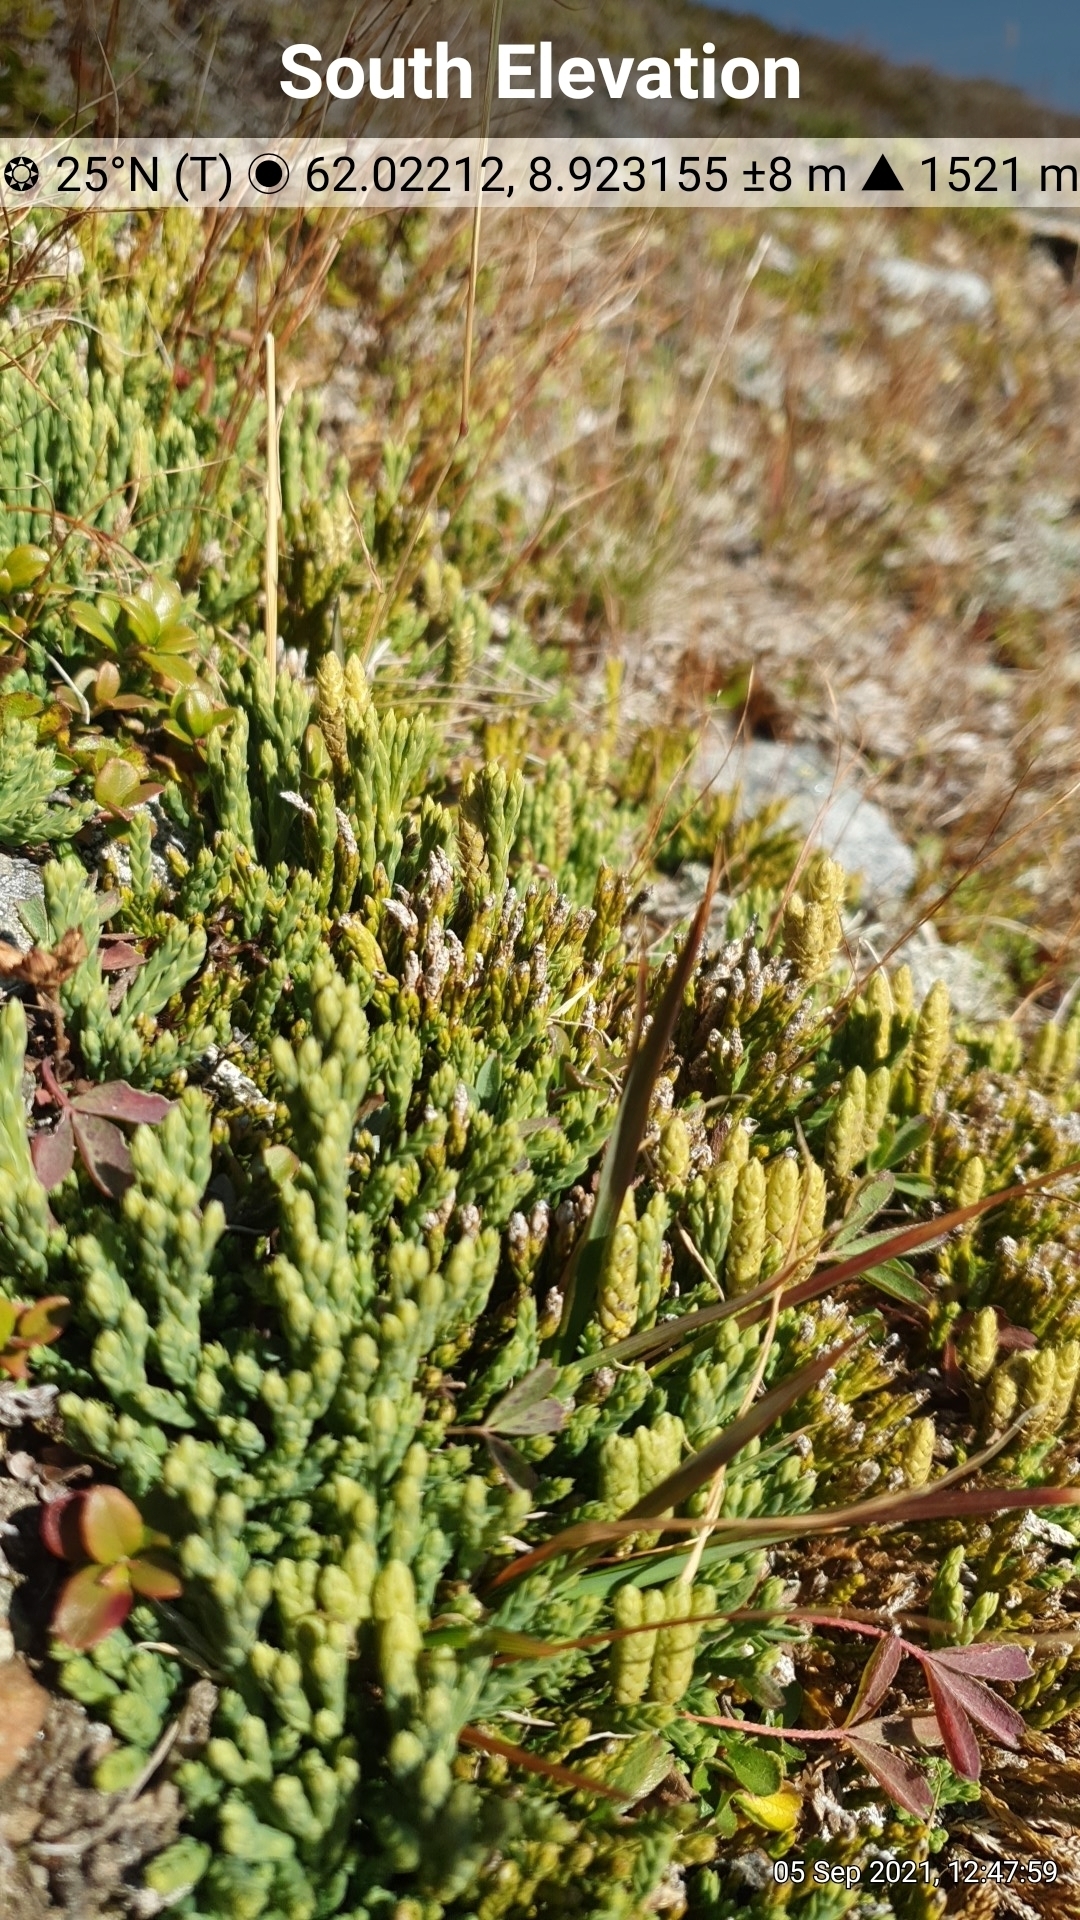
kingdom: Plantae
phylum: Tracheophyta
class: Lycopodiopsida
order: Lycopodiales
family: Lycopodiaceae
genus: Diphasiastrum
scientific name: Diphasiastrum alpinum
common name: Alpine clubmoss
